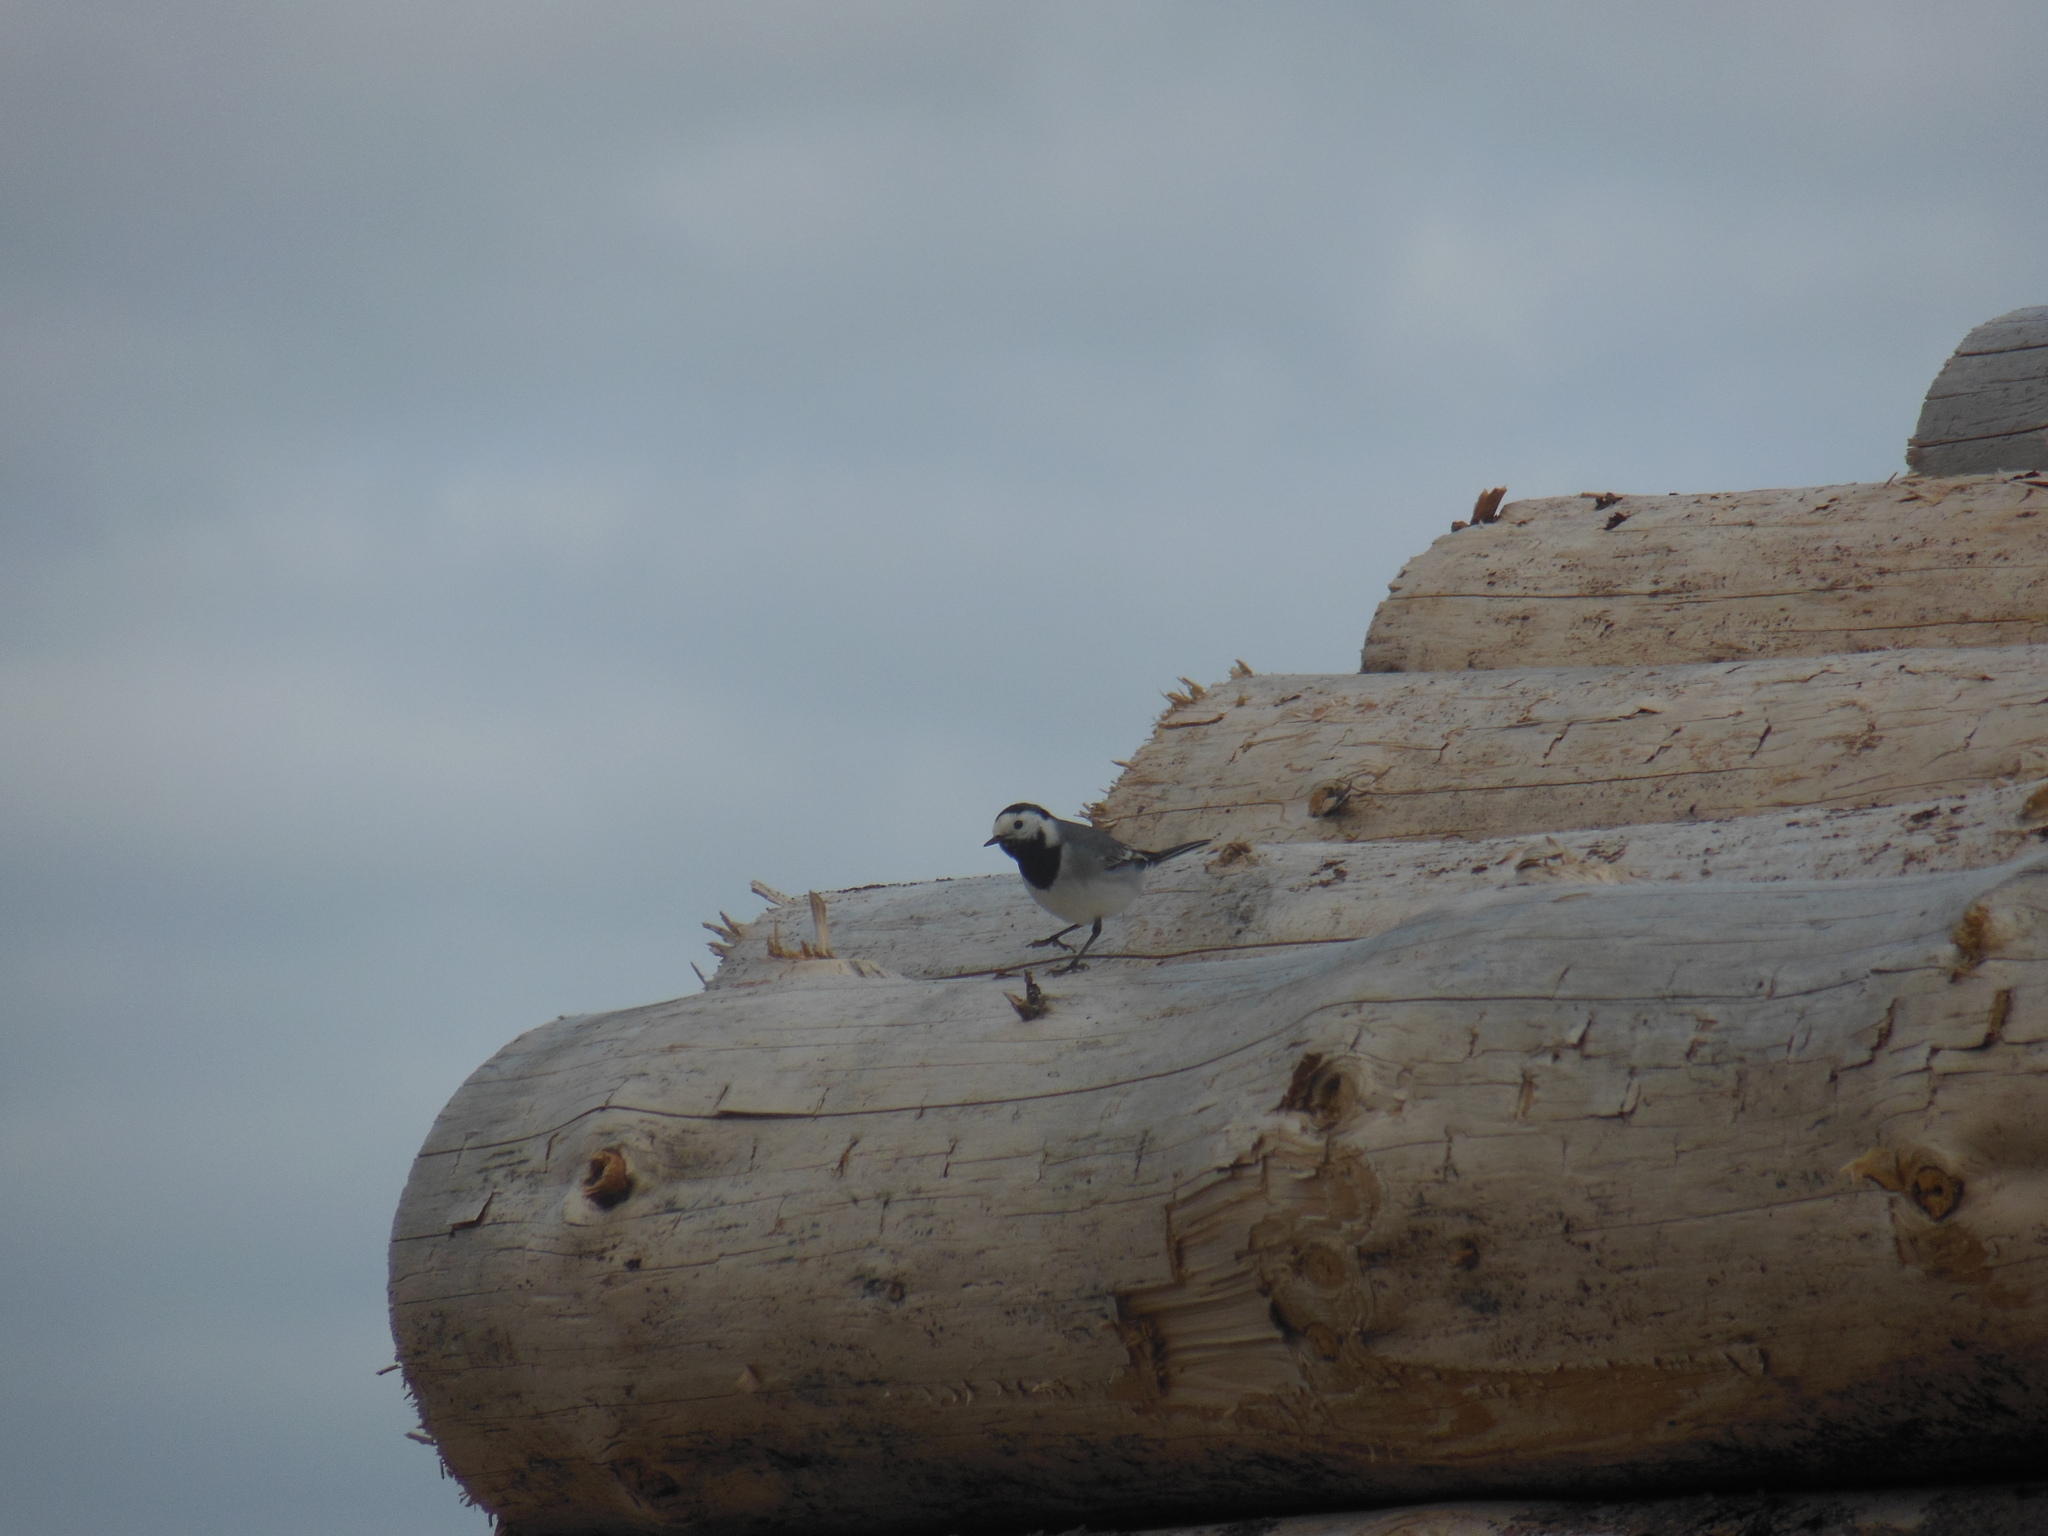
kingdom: Animalia
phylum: Chordata
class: Aves
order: Passeriformes
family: Motacillidae
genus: Motacilla
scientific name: Motacilla alba
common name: White wagtail
